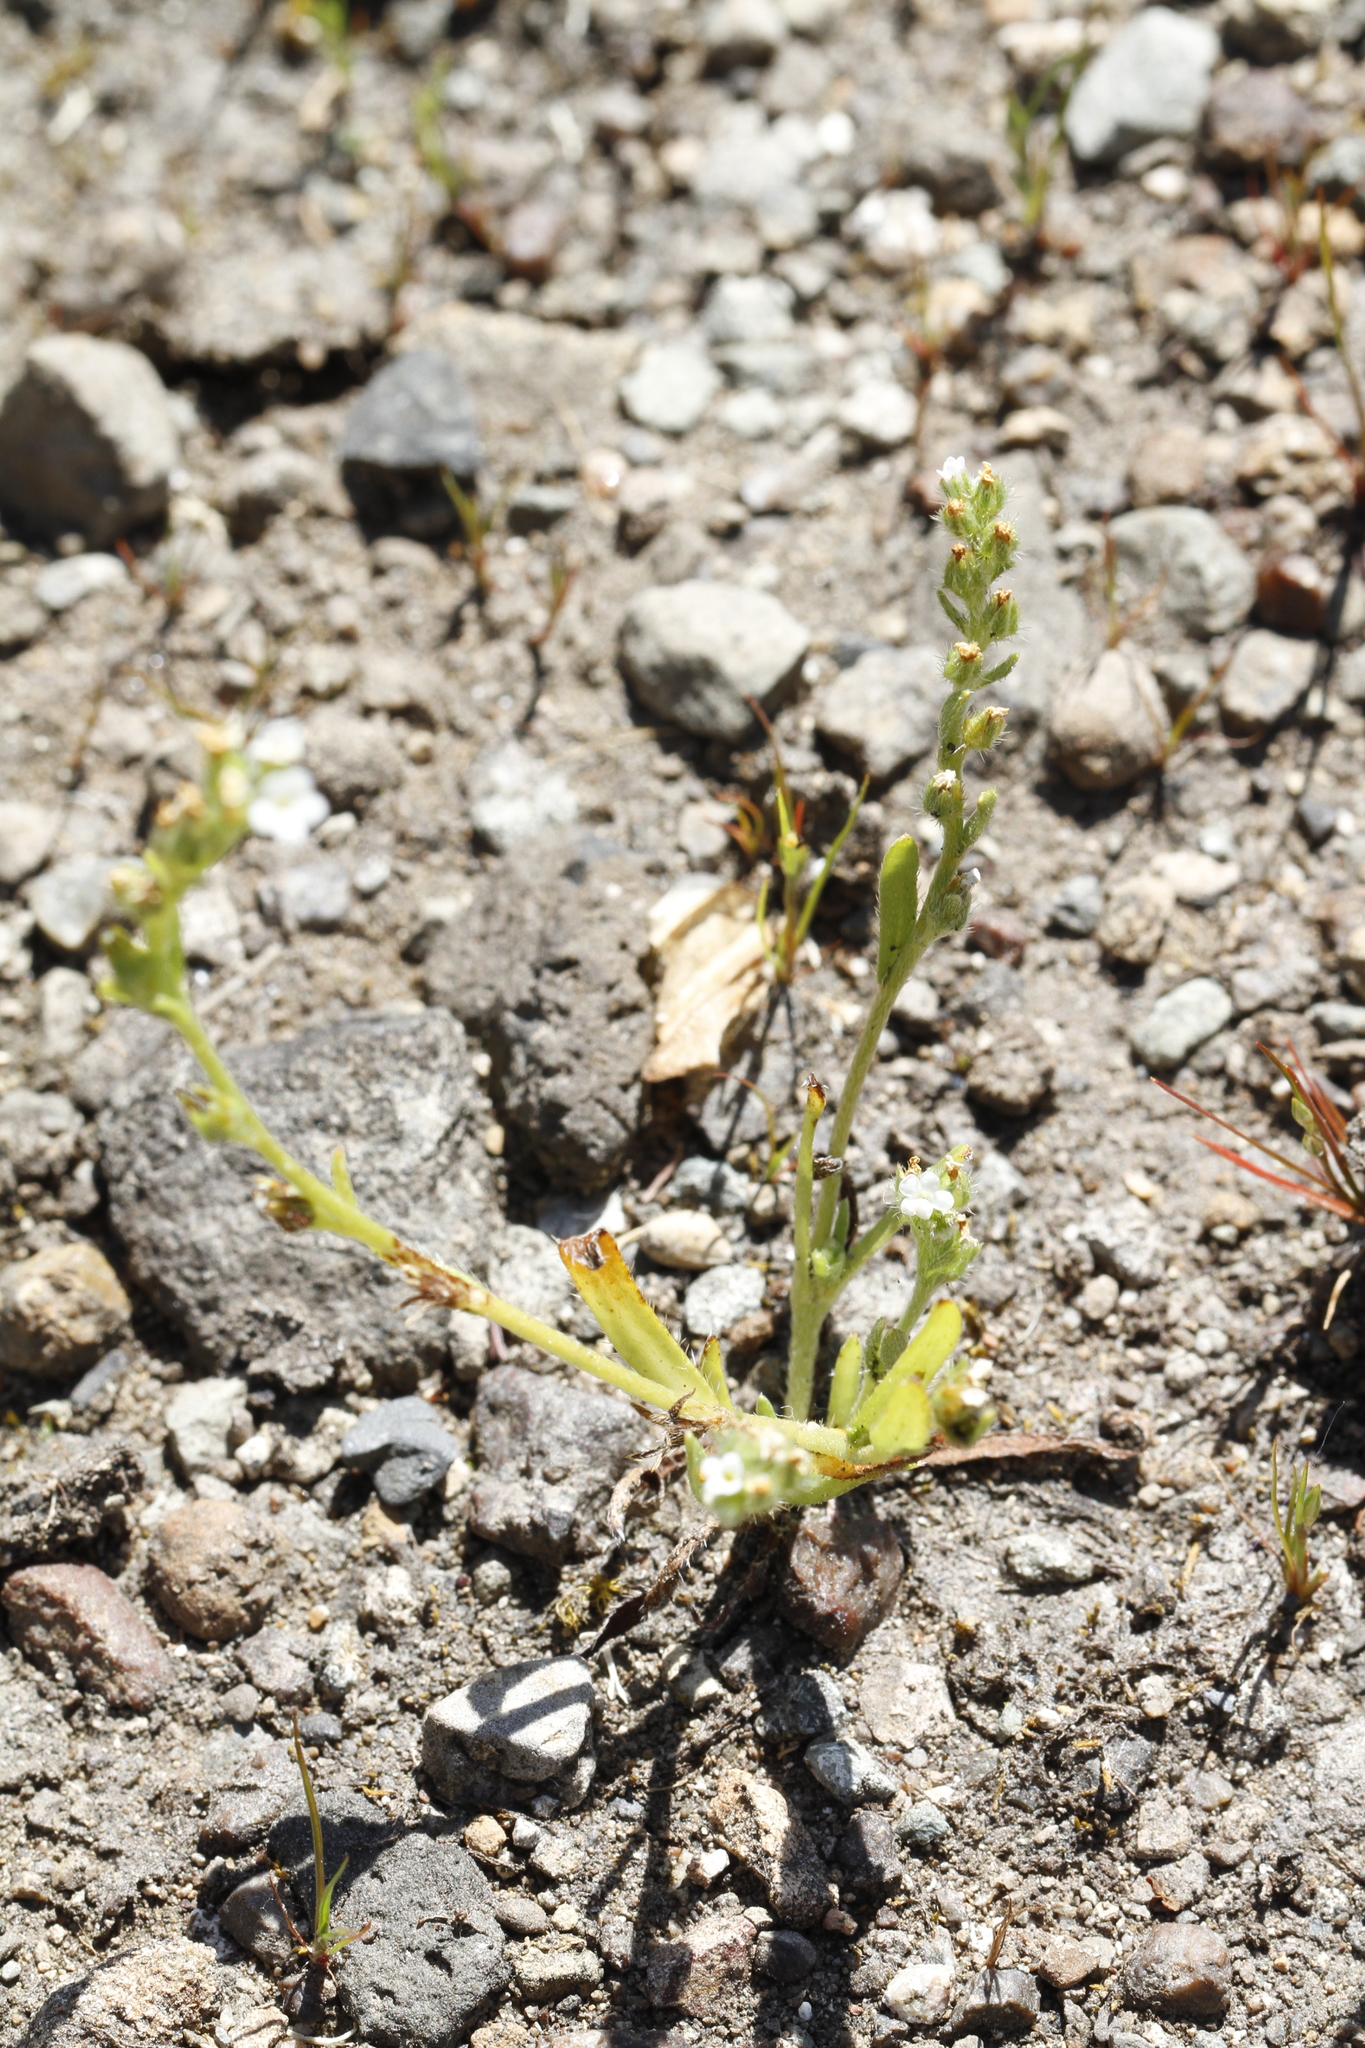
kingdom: Plantae
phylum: Tracheophyta
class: Magnoliopsida
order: Boraginales
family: Boraginaceae
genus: Plagiobothrys
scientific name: Plagiobothrys scouleri
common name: White forget-me-not
